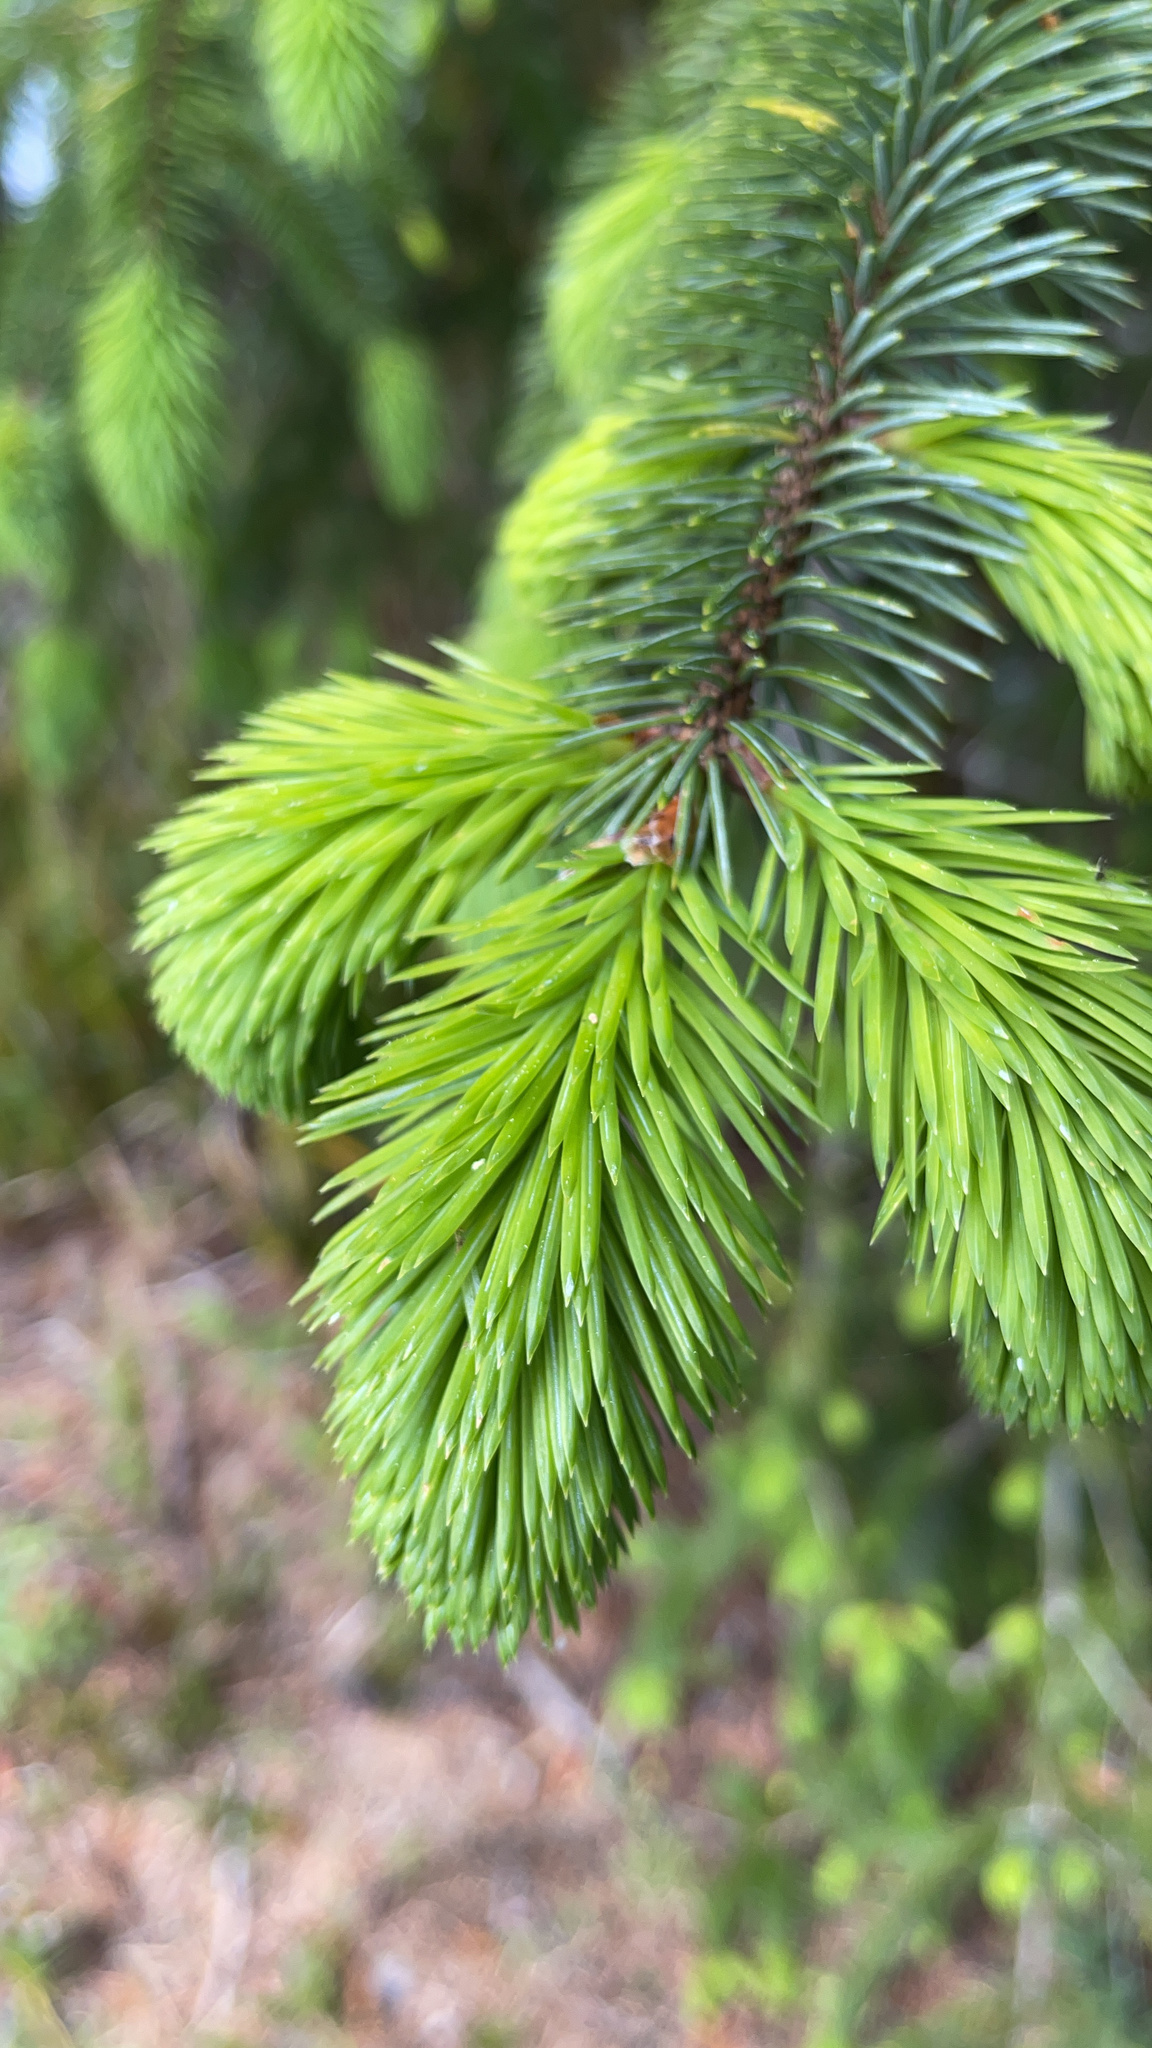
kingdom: Plantae
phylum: Tracheophyta
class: Pinopsida
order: Pinales
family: Pinaceae
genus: Picea
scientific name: Picea sitchensis
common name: Sitka spruce
